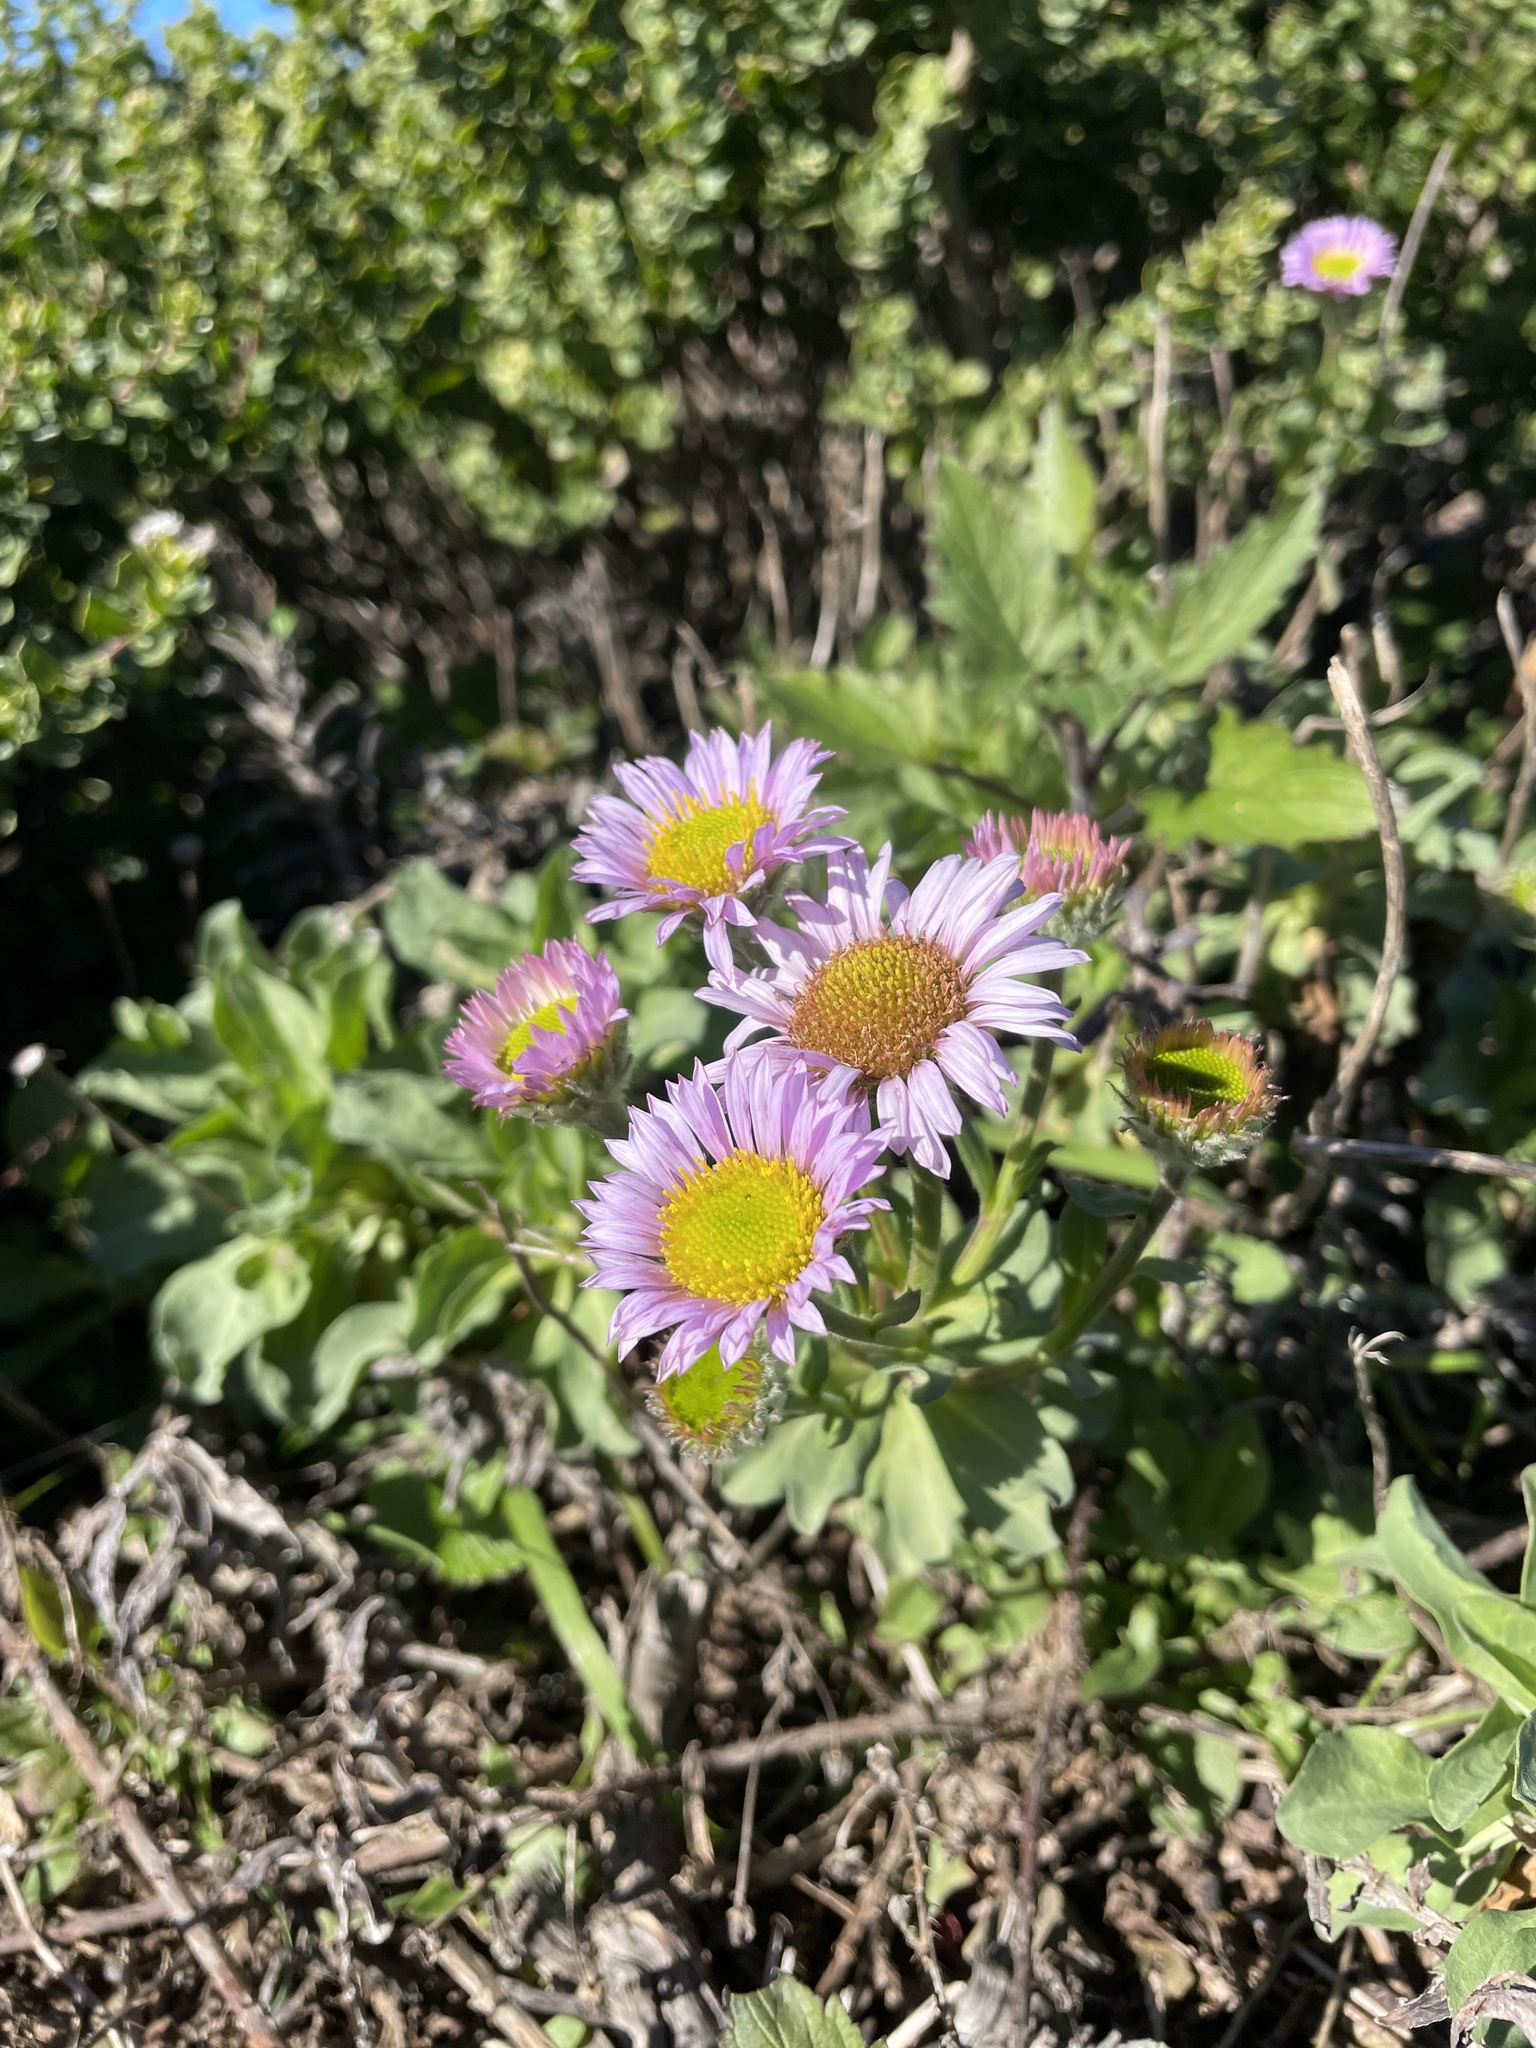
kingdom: Plantae
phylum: Tracheophyta
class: Magnoliopsida
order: Asterales
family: Asteraceae
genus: Erigeron
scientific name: Erigeron glaucus
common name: Seaside daisy
